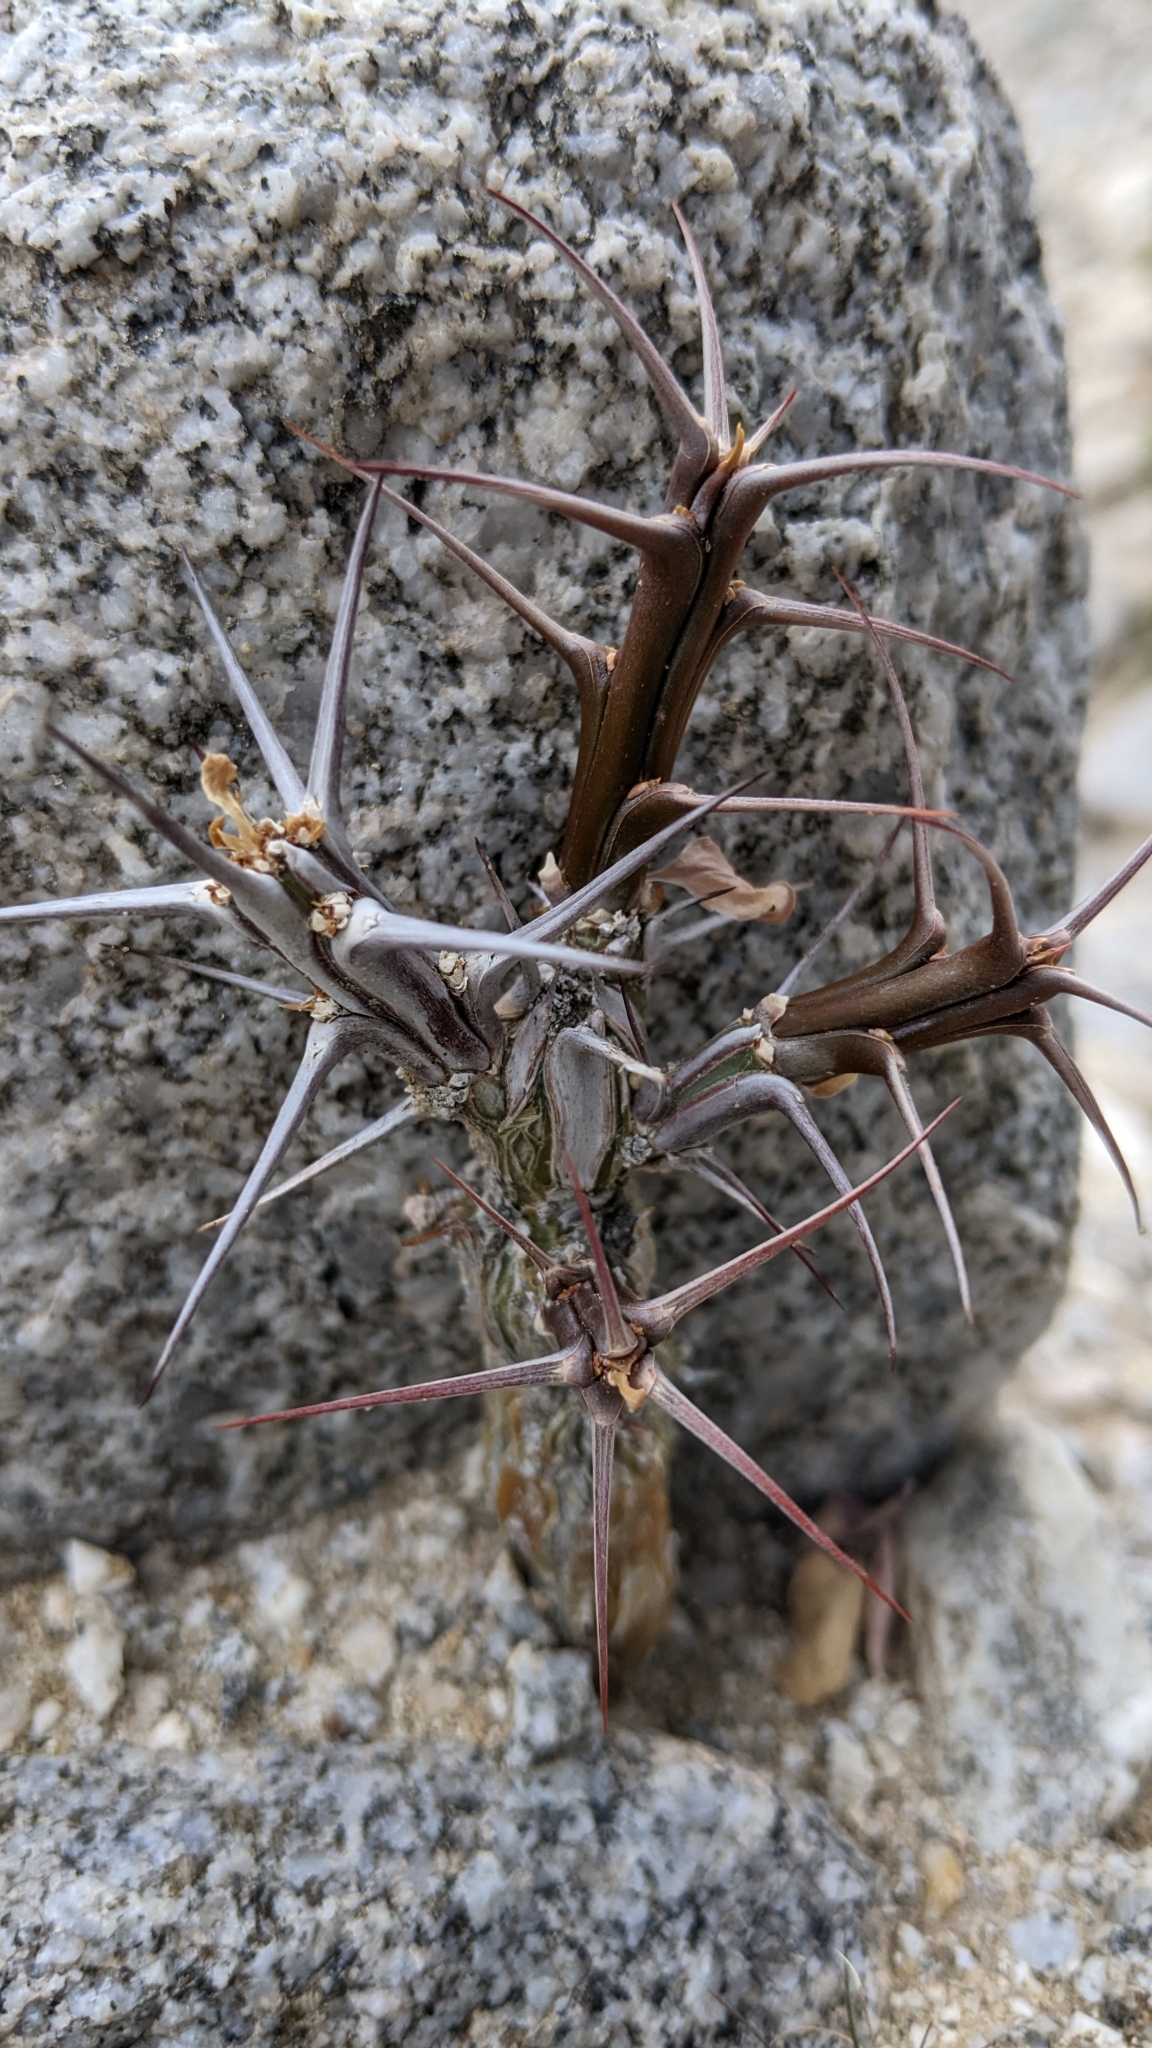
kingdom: Plantae
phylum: Tracheophyta
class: Magnoliopsida
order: Ericales
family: Fouquieriaceae
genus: Fouquieria
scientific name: Fouquieria splendens
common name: Vine-cactus
